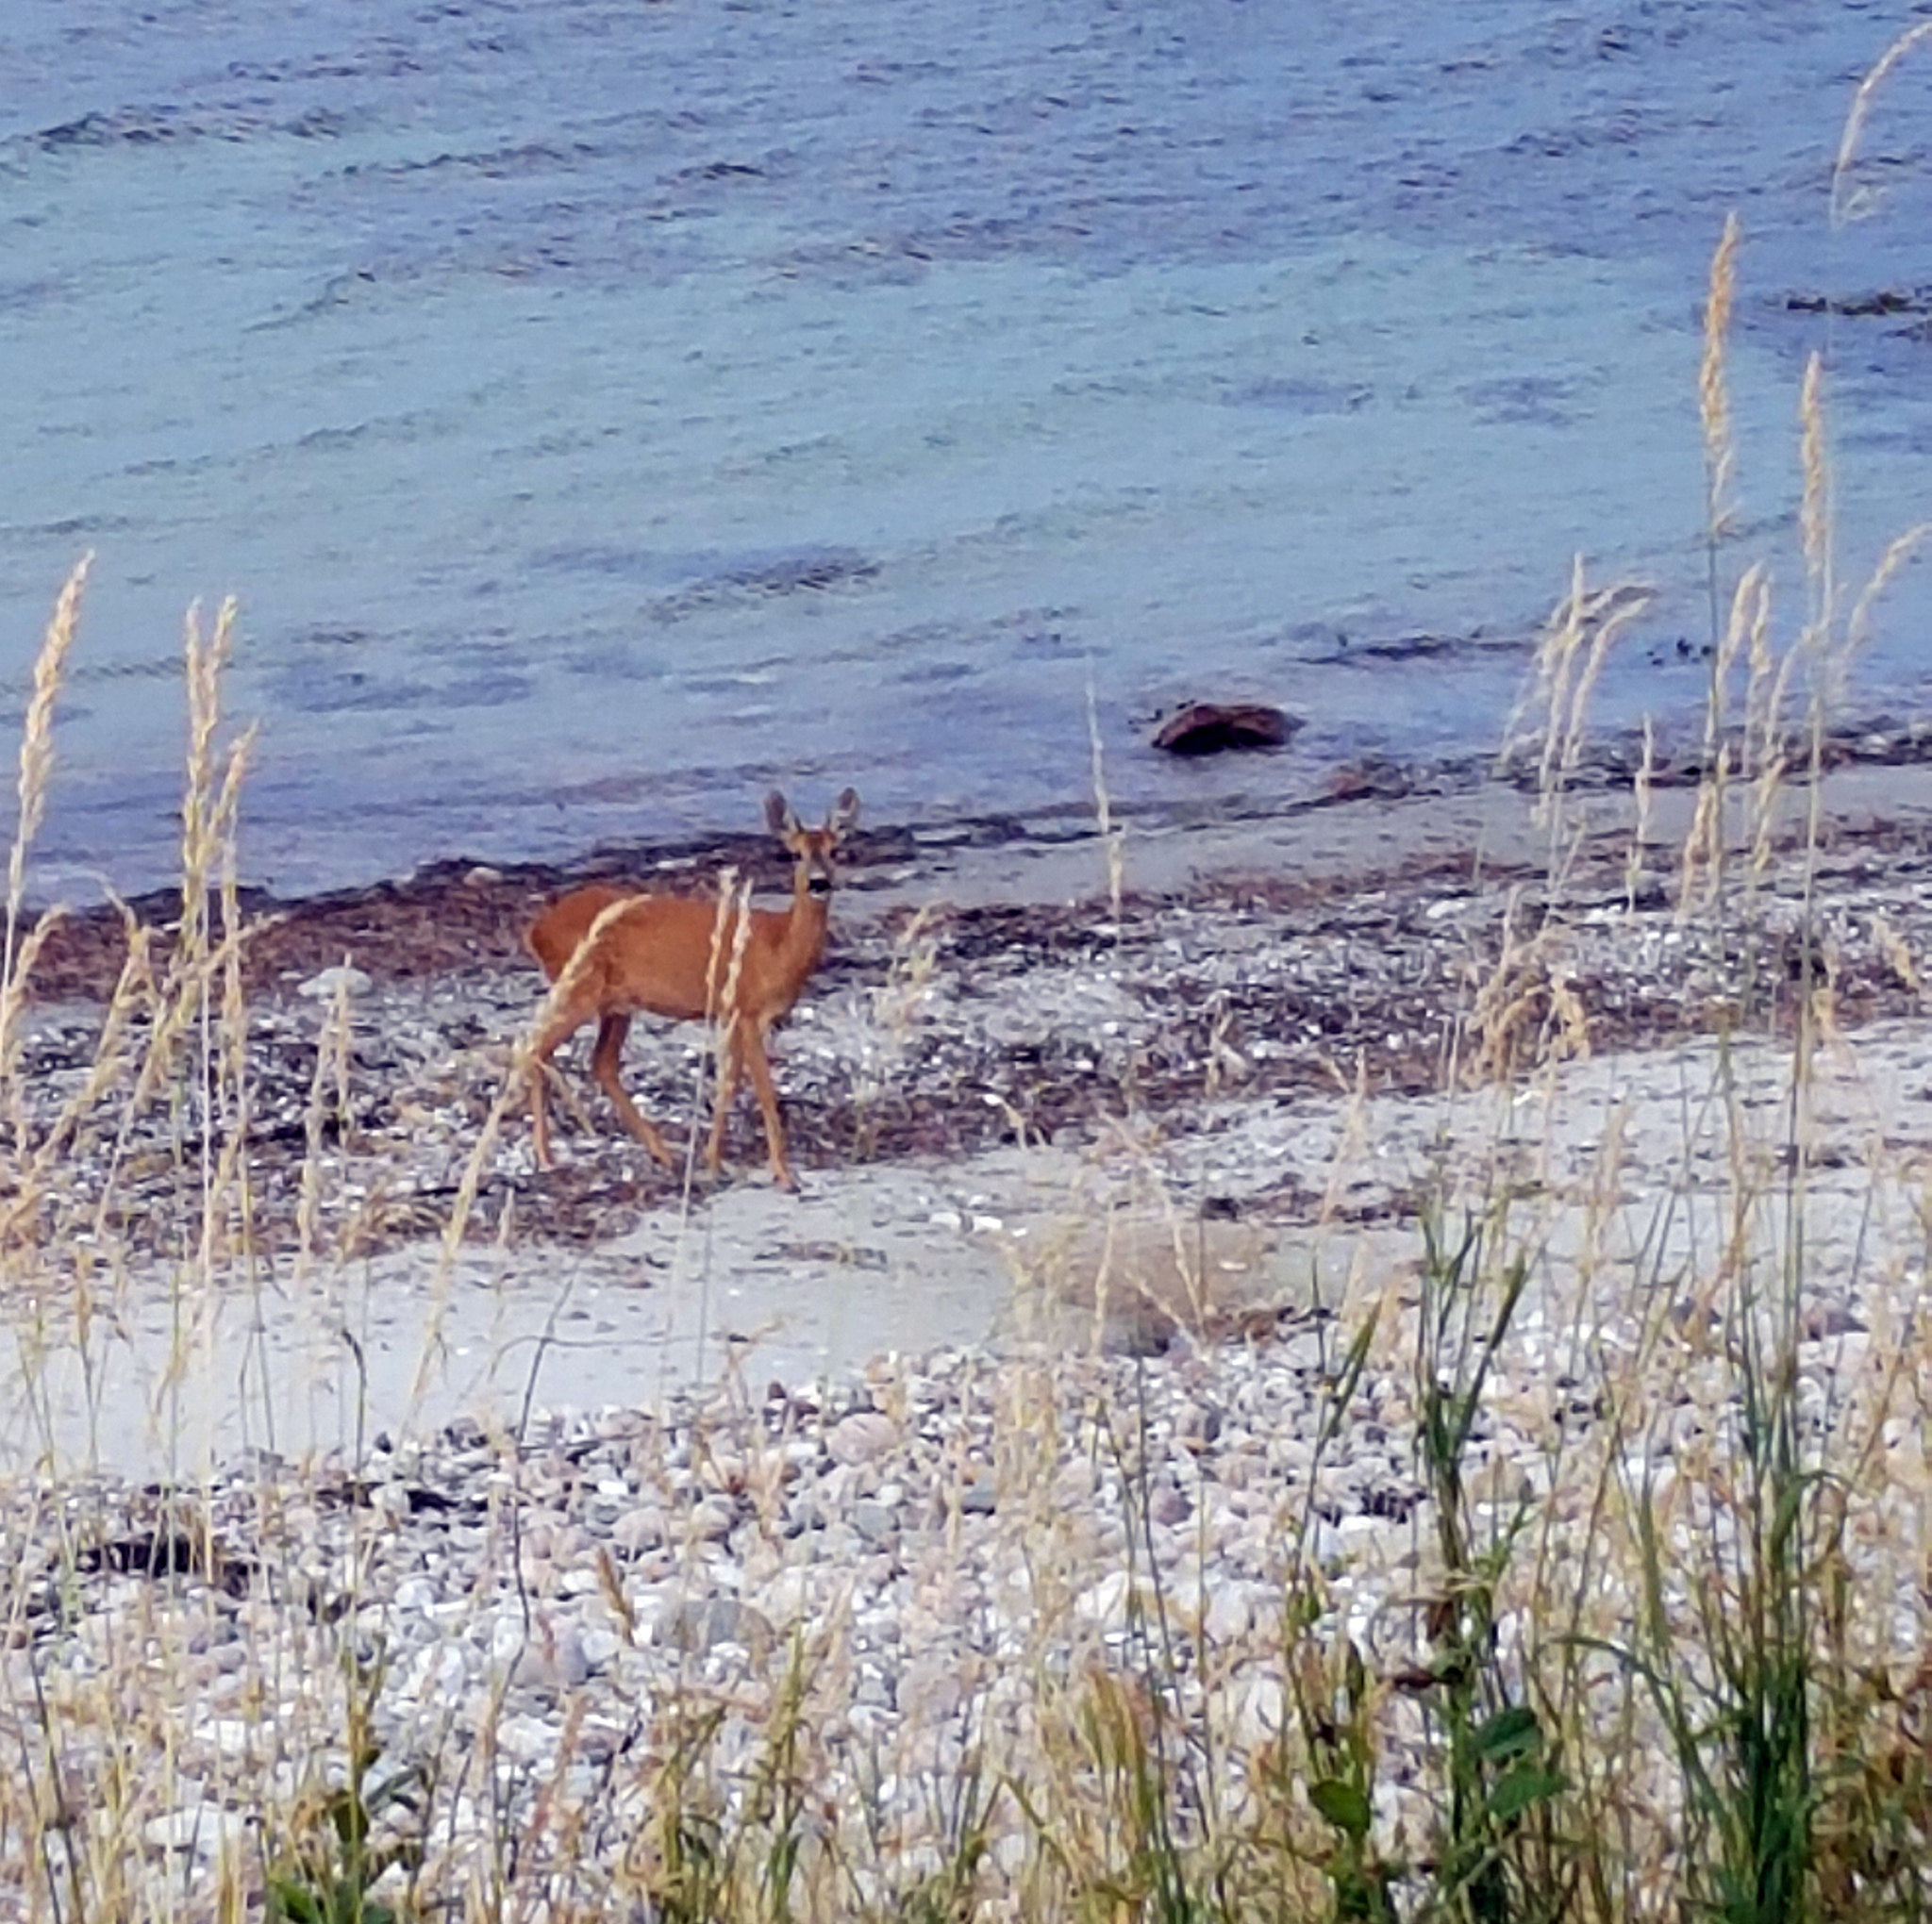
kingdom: Animalia
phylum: Chordata
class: Mammalia
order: Artiodactyla
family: Cervidae
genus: Capreolus
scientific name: Capreolus capreolus
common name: Western roe deer
